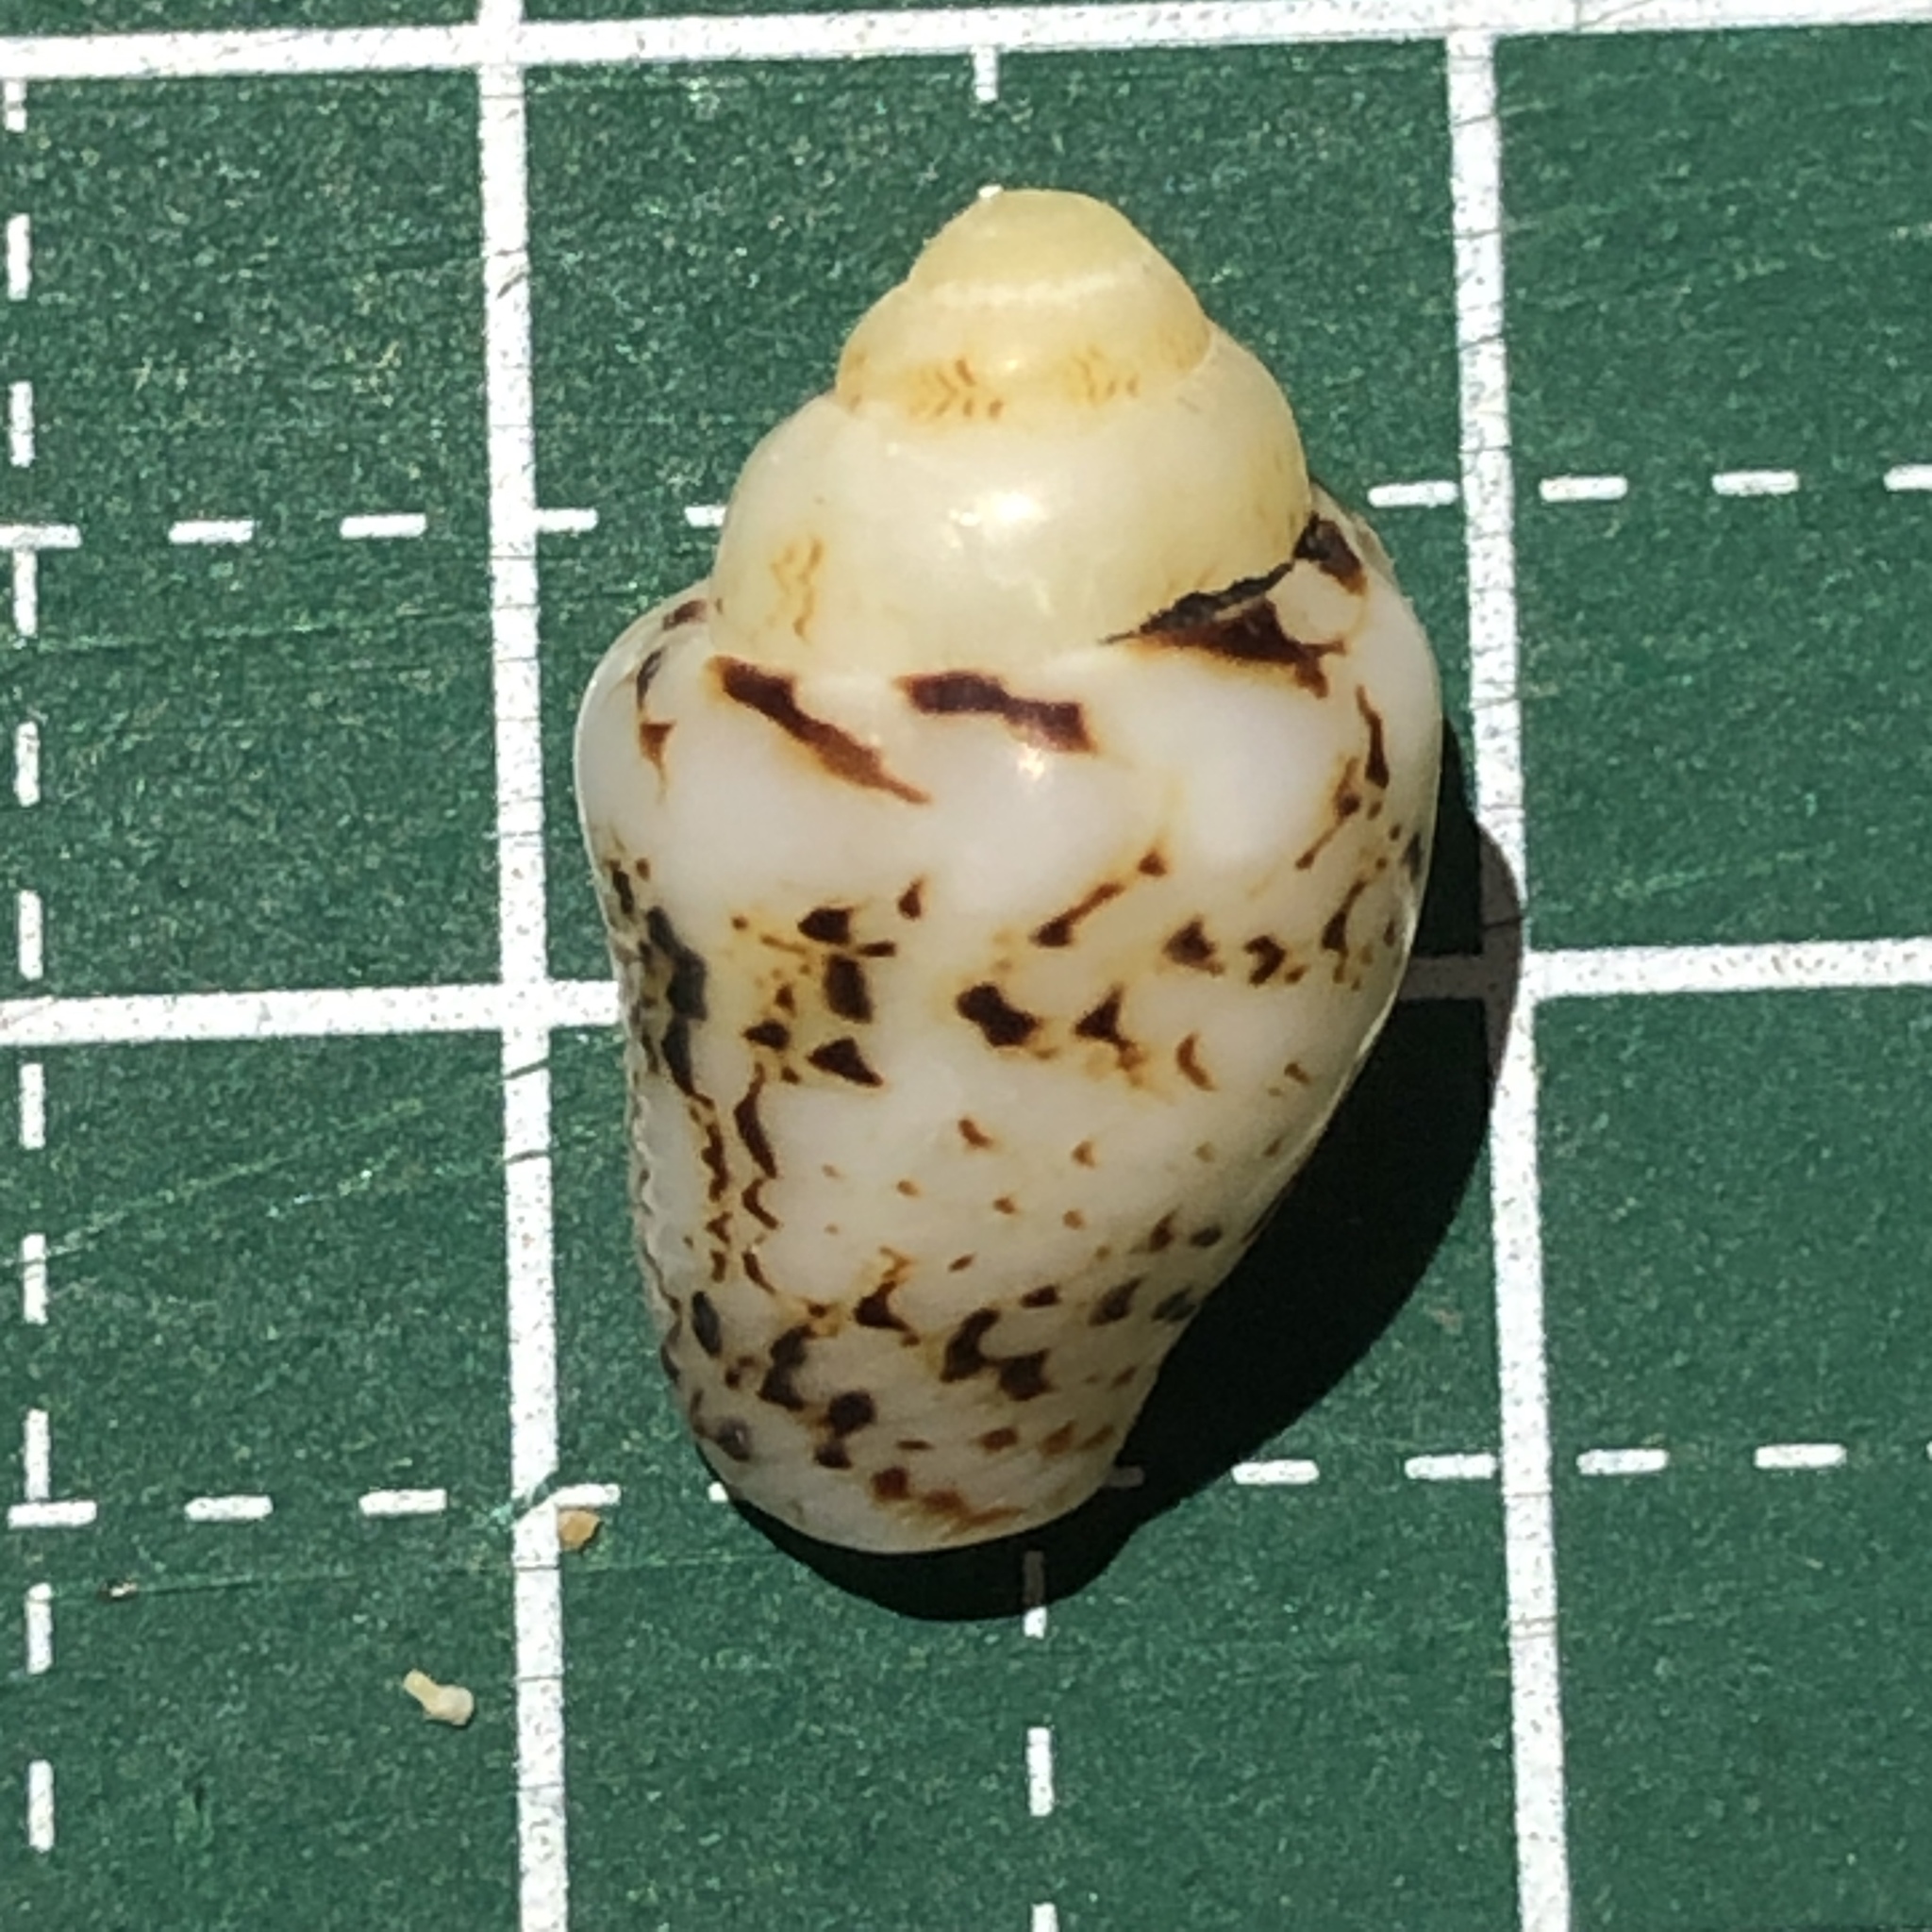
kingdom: Animalia
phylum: Mollusca
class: Gastropoda
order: Neogastropoda
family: Columbellidae
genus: Euplica
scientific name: Euplica scripta
